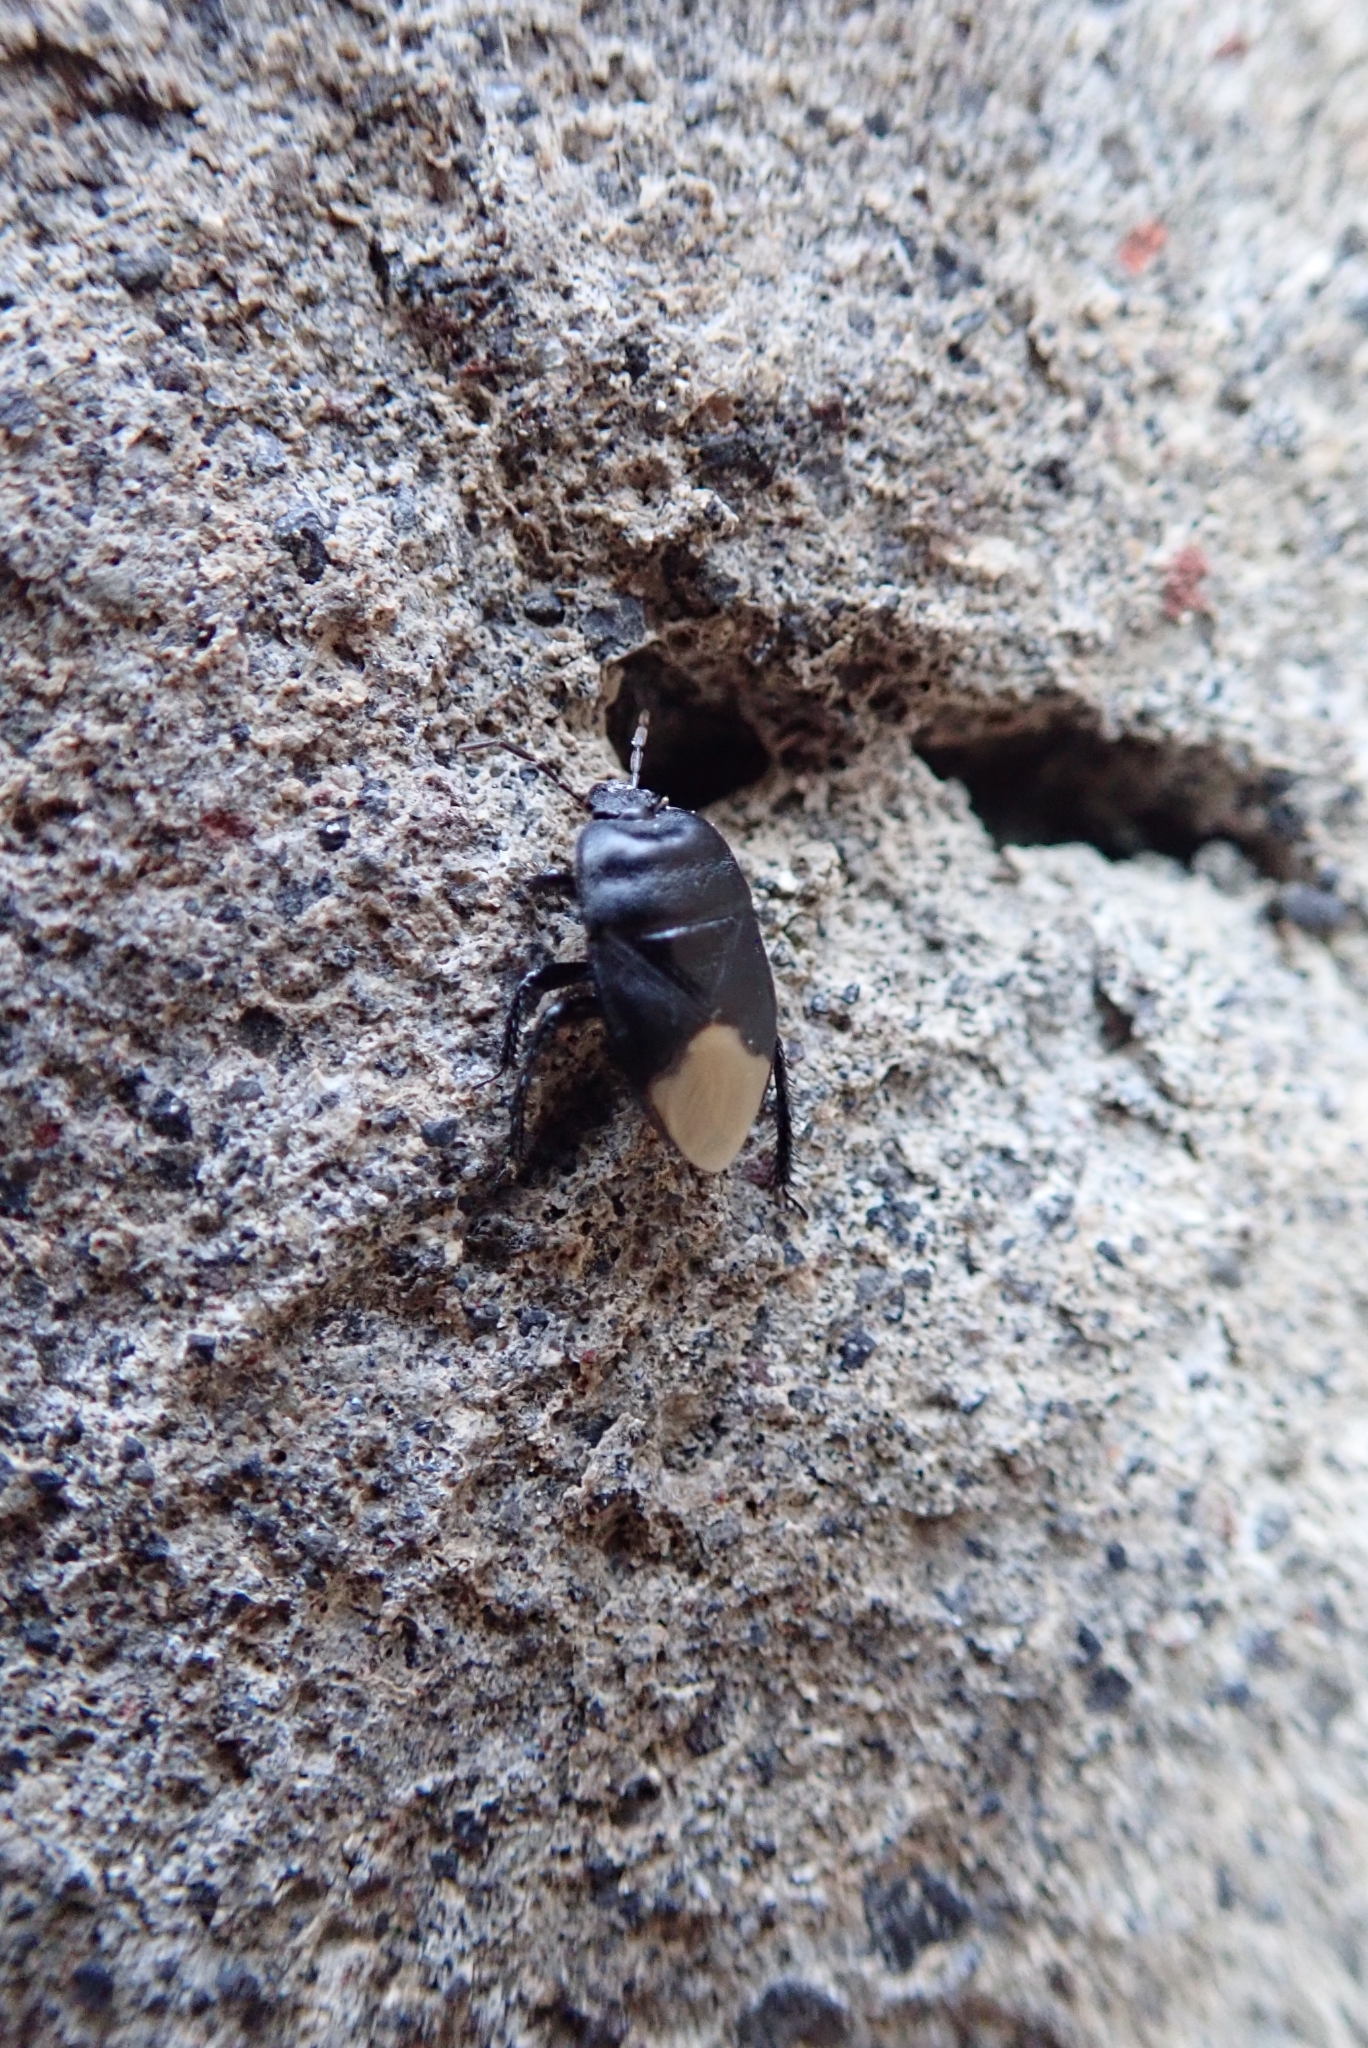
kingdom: Animalia
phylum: Arthropoda
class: Insecta
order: Hemiptera
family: Cydnidae
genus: Cydnus
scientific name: Cydnus aterrimus
